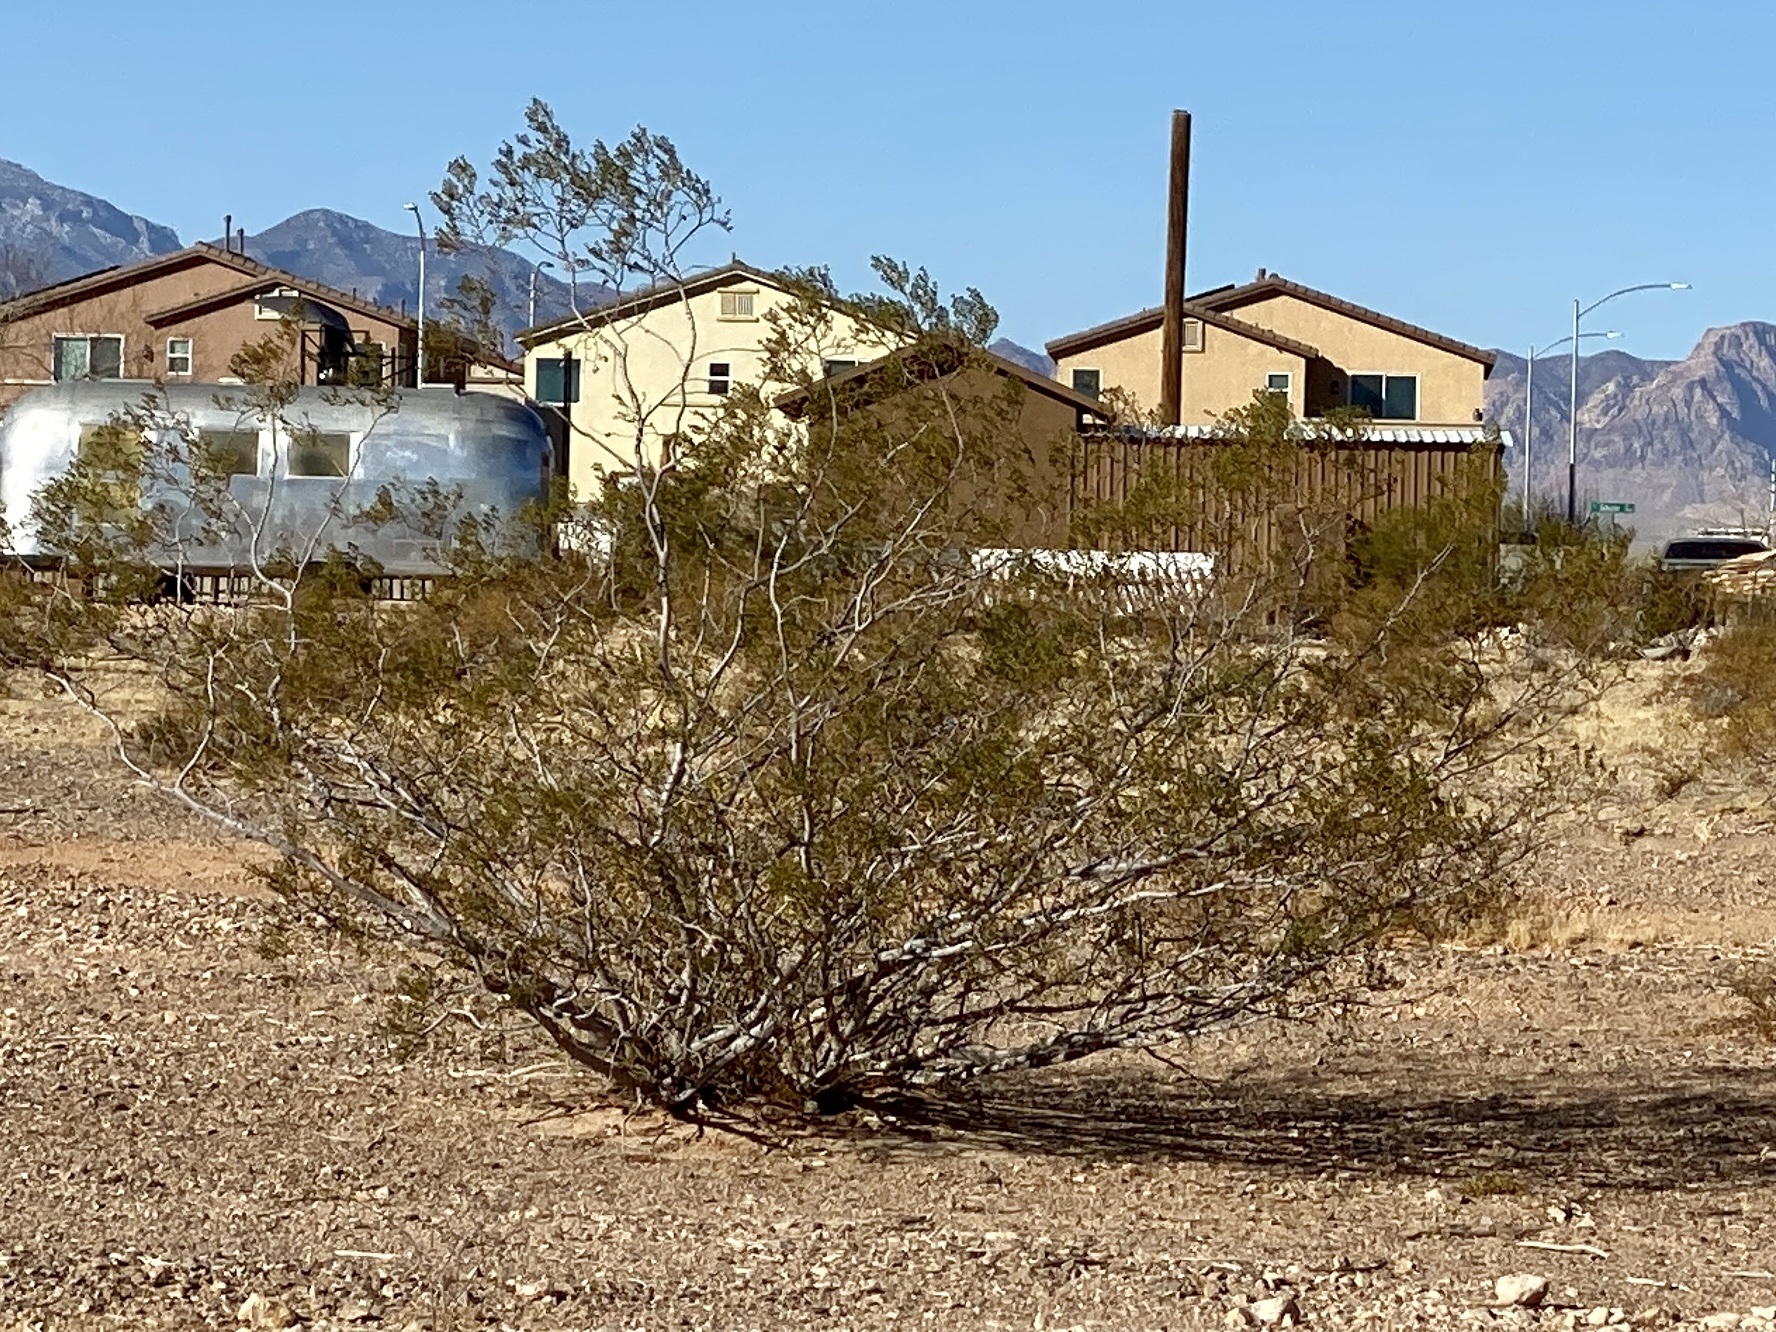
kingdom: Plantae
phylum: Tracheophyta
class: Magnoliopsida
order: Zygophyllales
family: Zygophyllaceae
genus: Larrea
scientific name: Larrea tridentata
